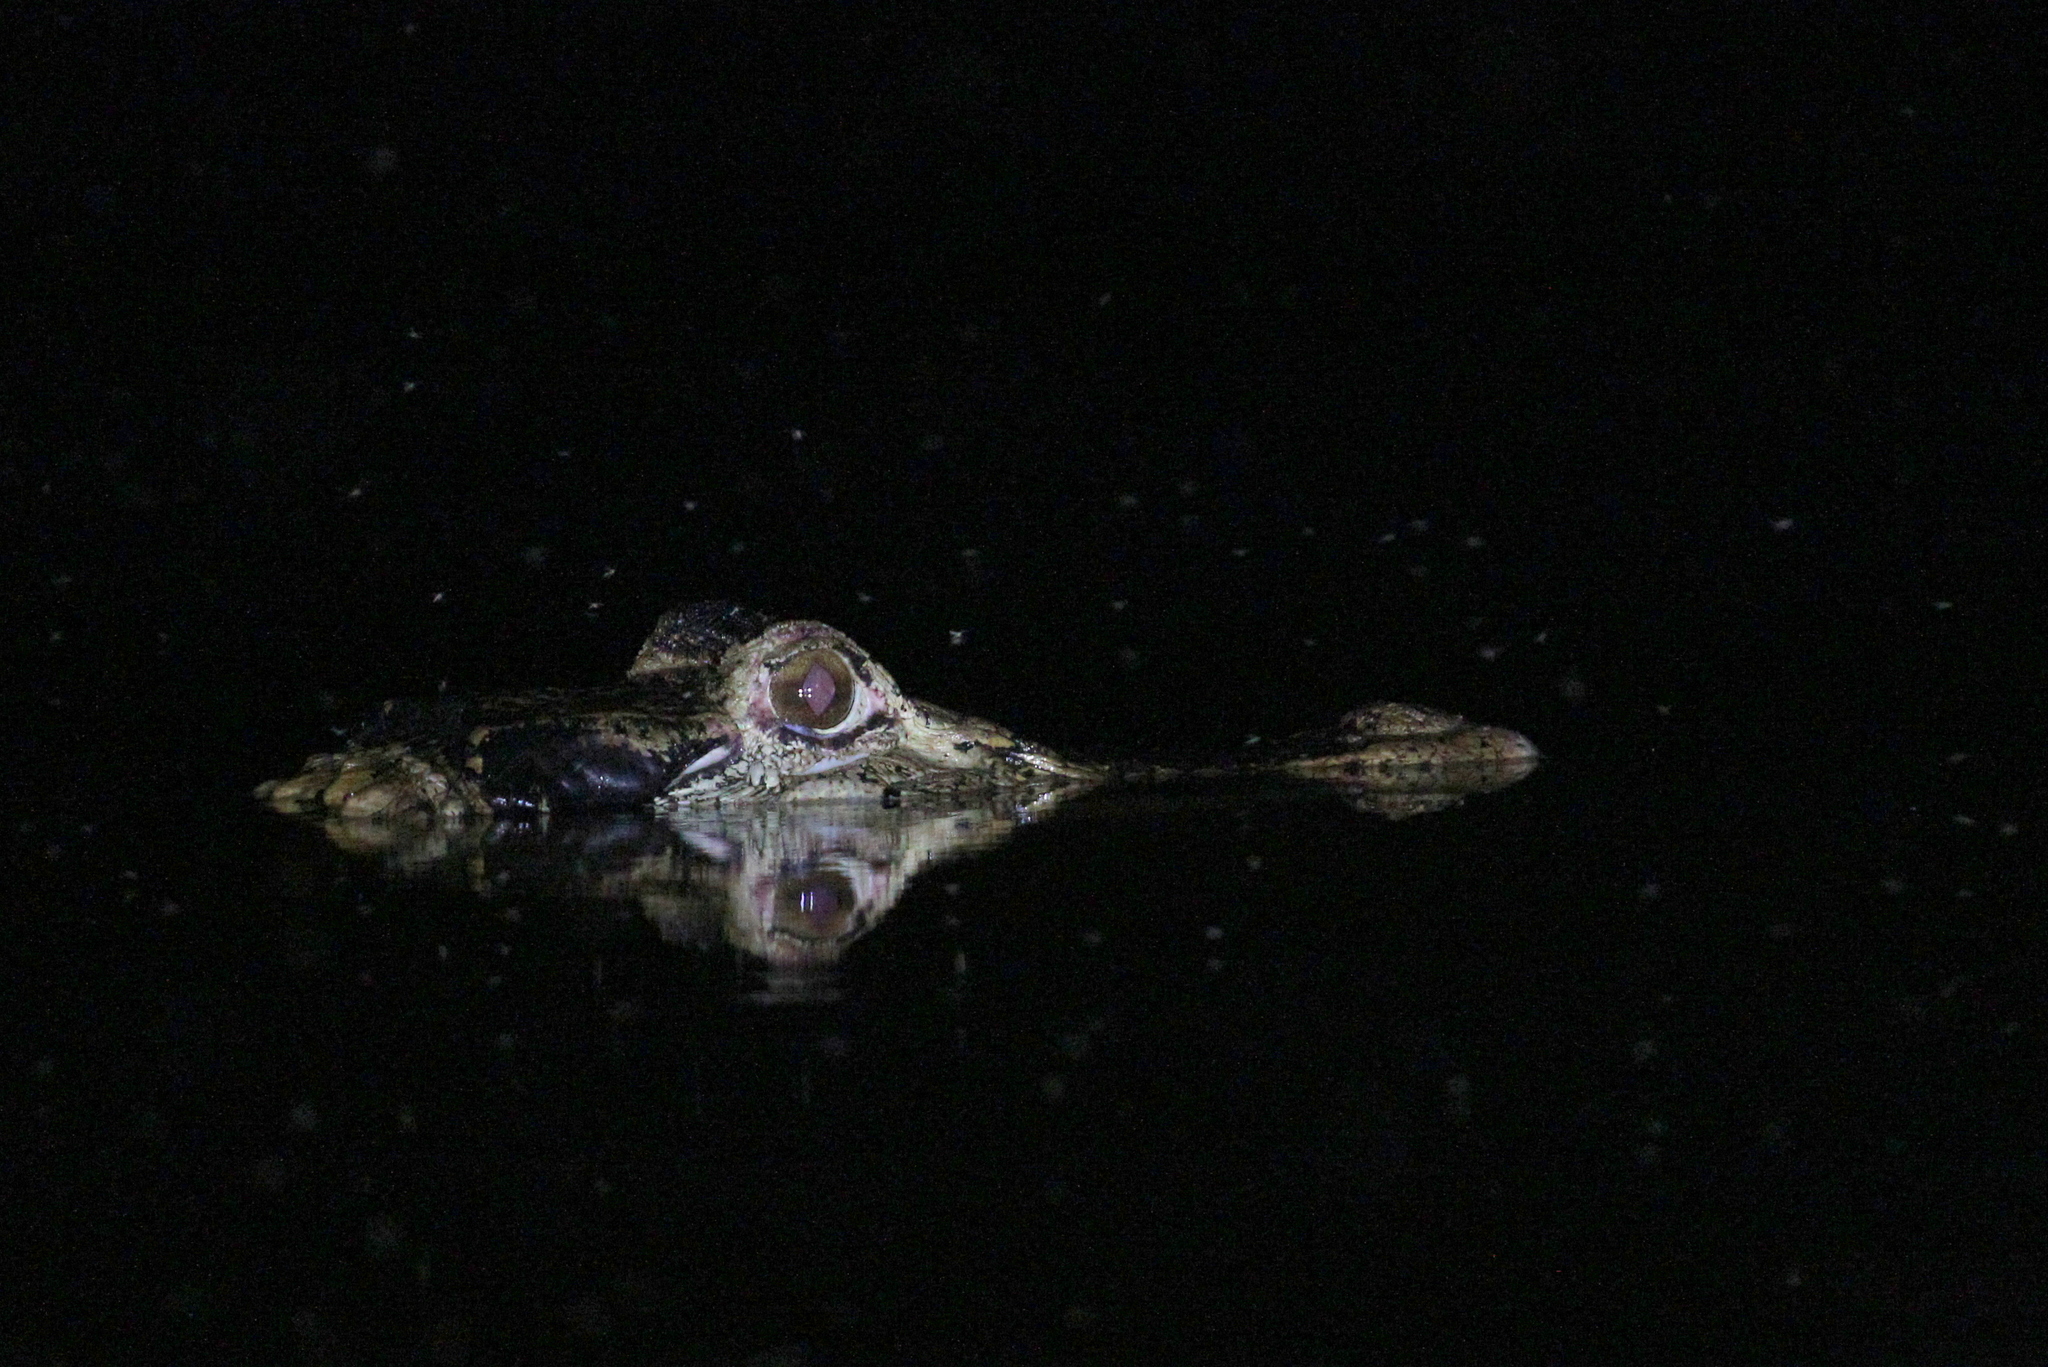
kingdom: Animalia
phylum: Chordata
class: Crocodylia
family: Alligatoridae
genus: Melanosuchus
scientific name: Melanosuchus niger
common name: Black caiman
